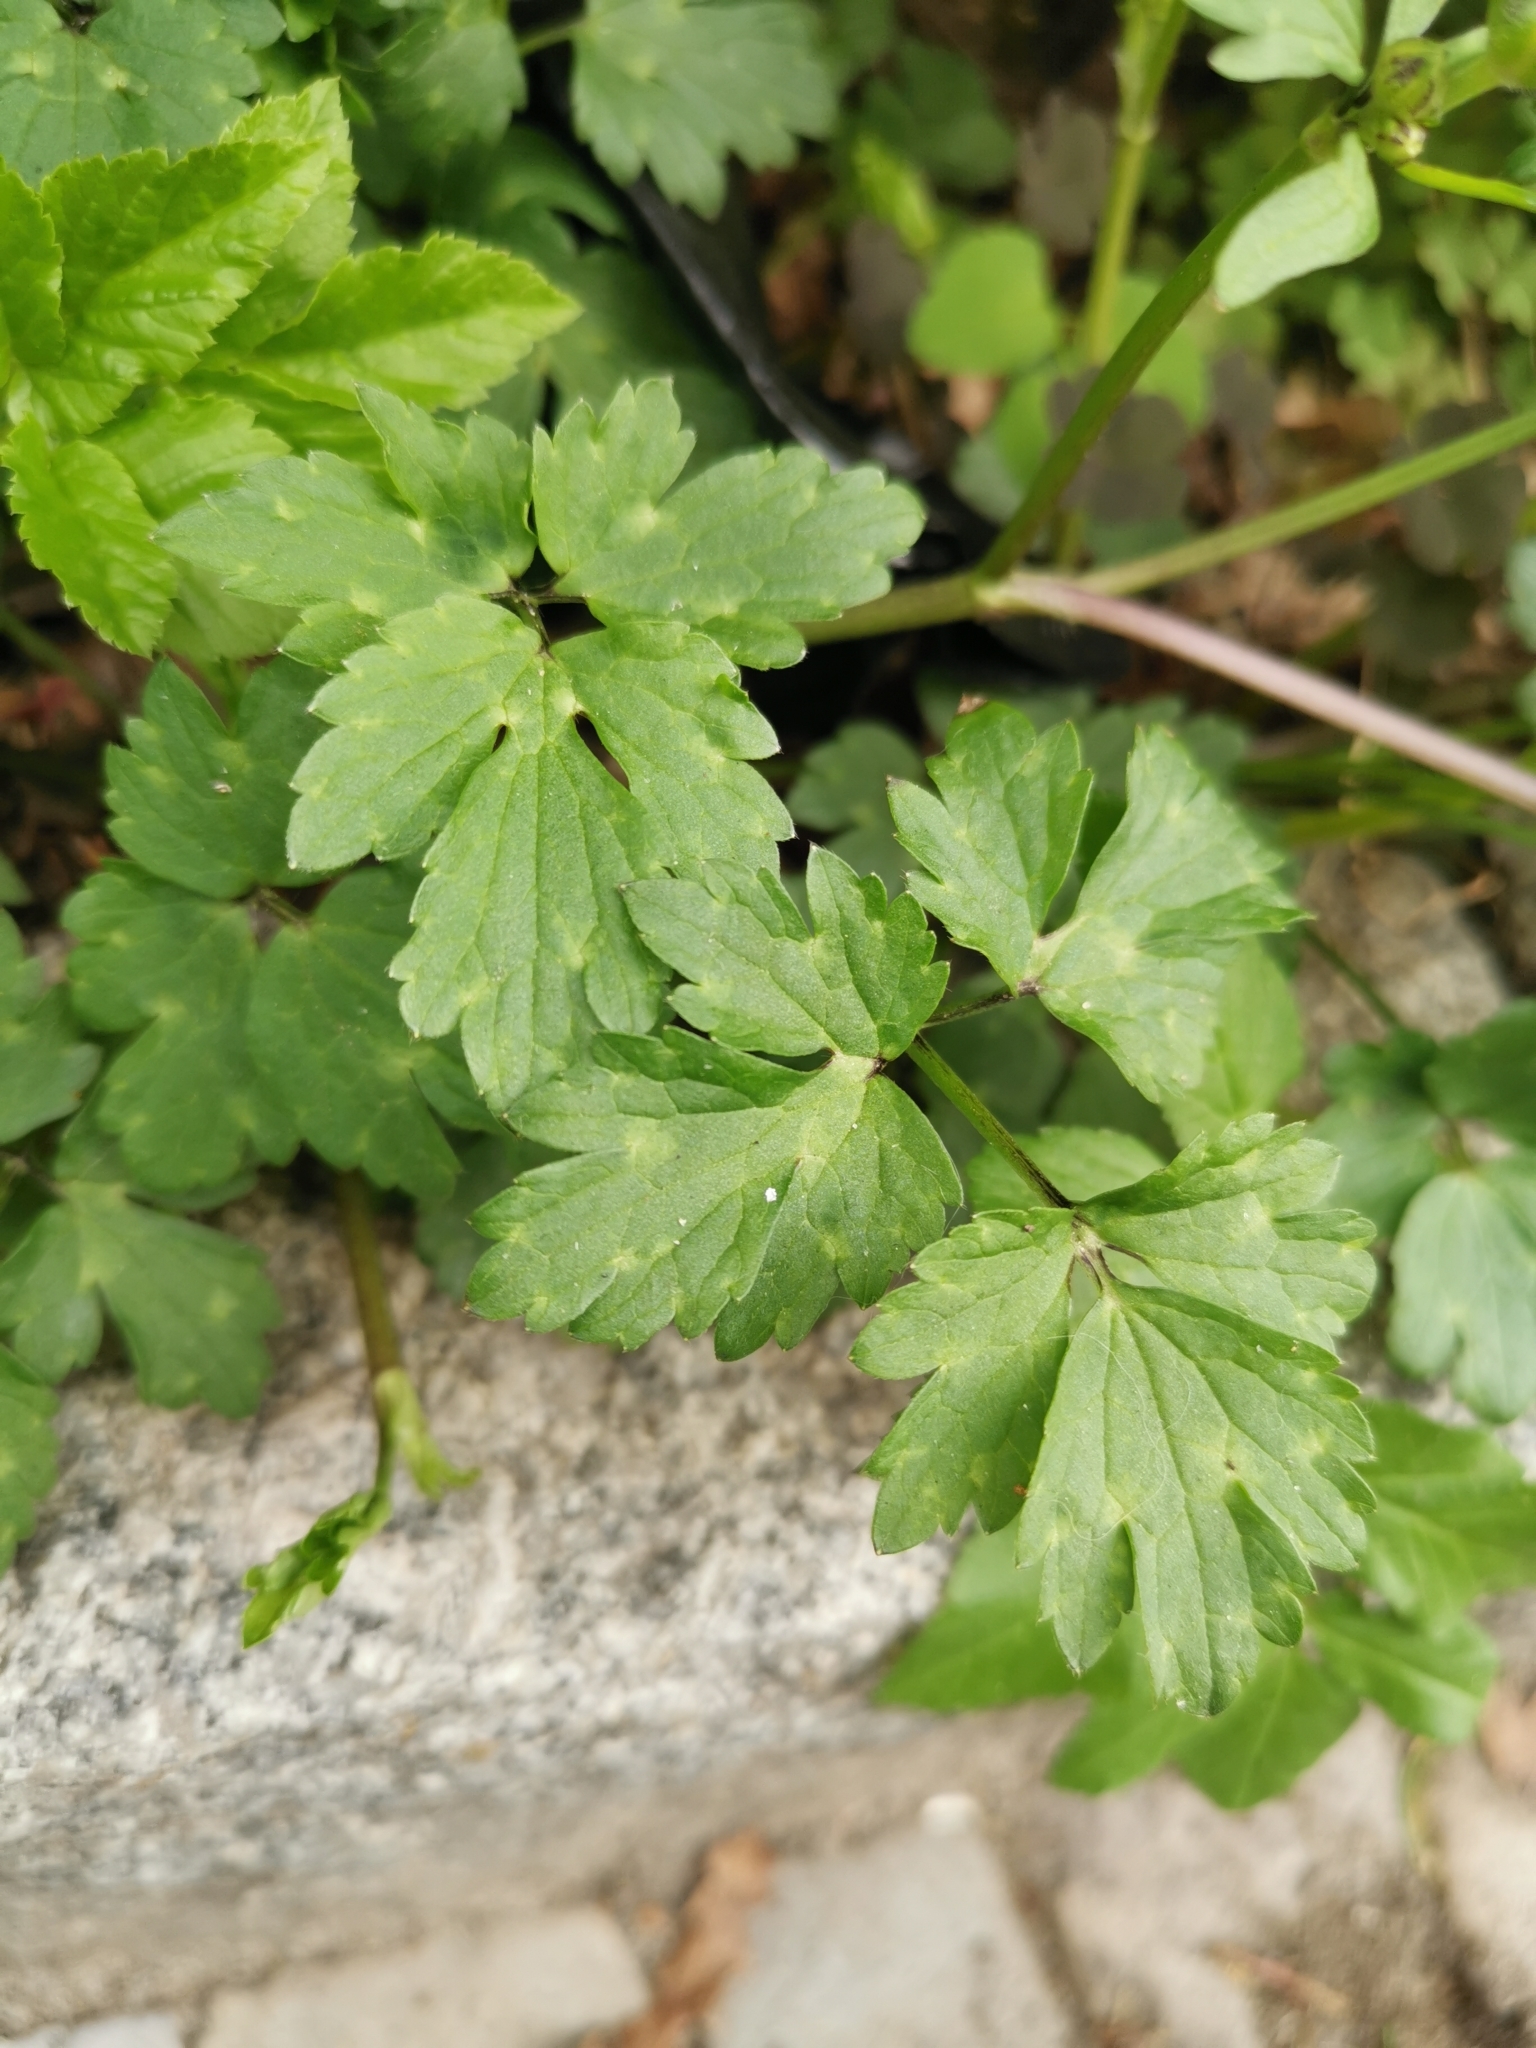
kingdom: Plantae
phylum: Tracheophyta
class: Magnoliopsida
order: Ranunculales
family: Ranunculaceae
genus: Ranunculus
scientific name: Ranunculus repens
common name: Creeping buttercup
